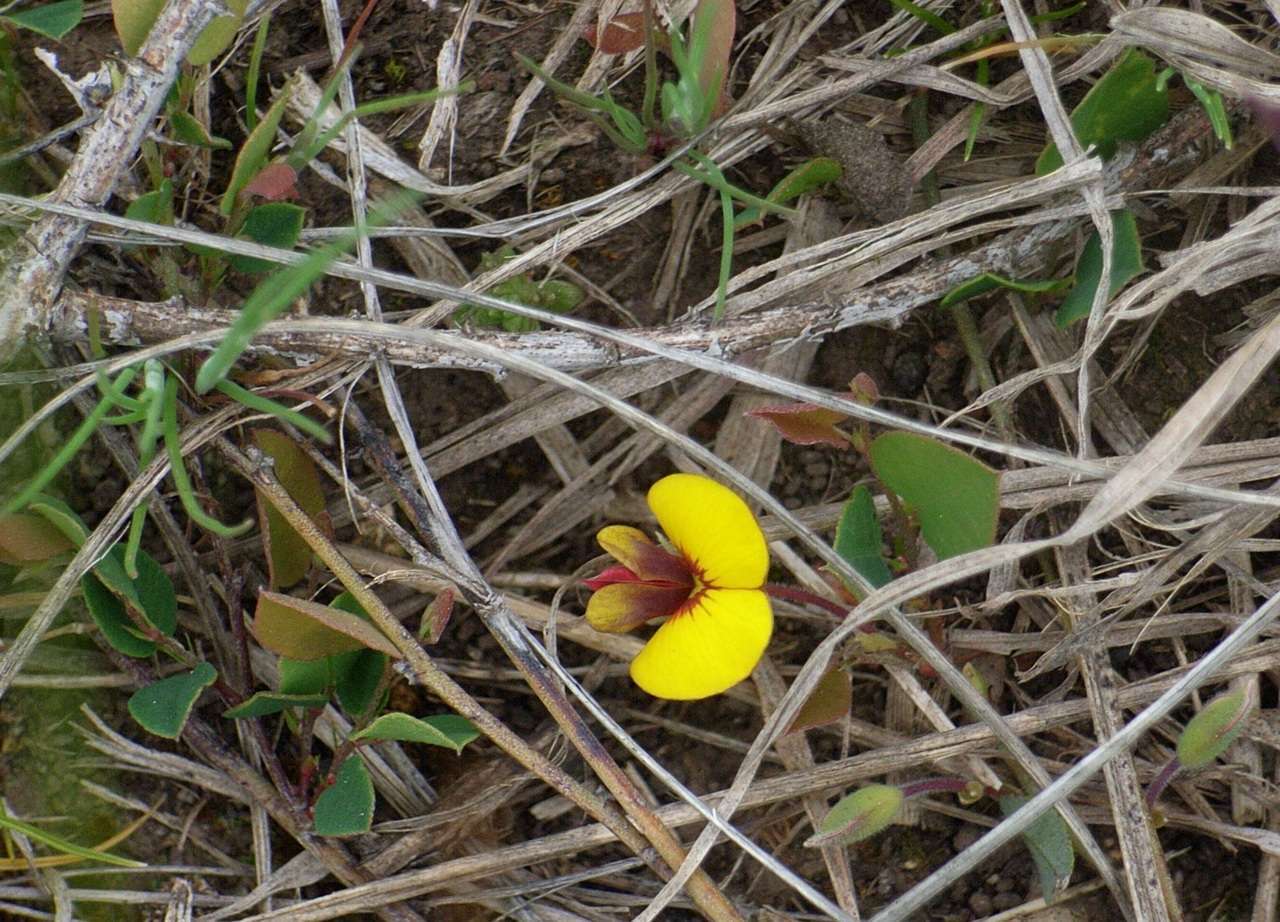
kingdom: Plantae
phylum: Tracheophyta
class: Magnoliopsida
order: Fabales
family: Fabaceae
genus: Bossiaea
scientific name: Bossiaea prostrata
